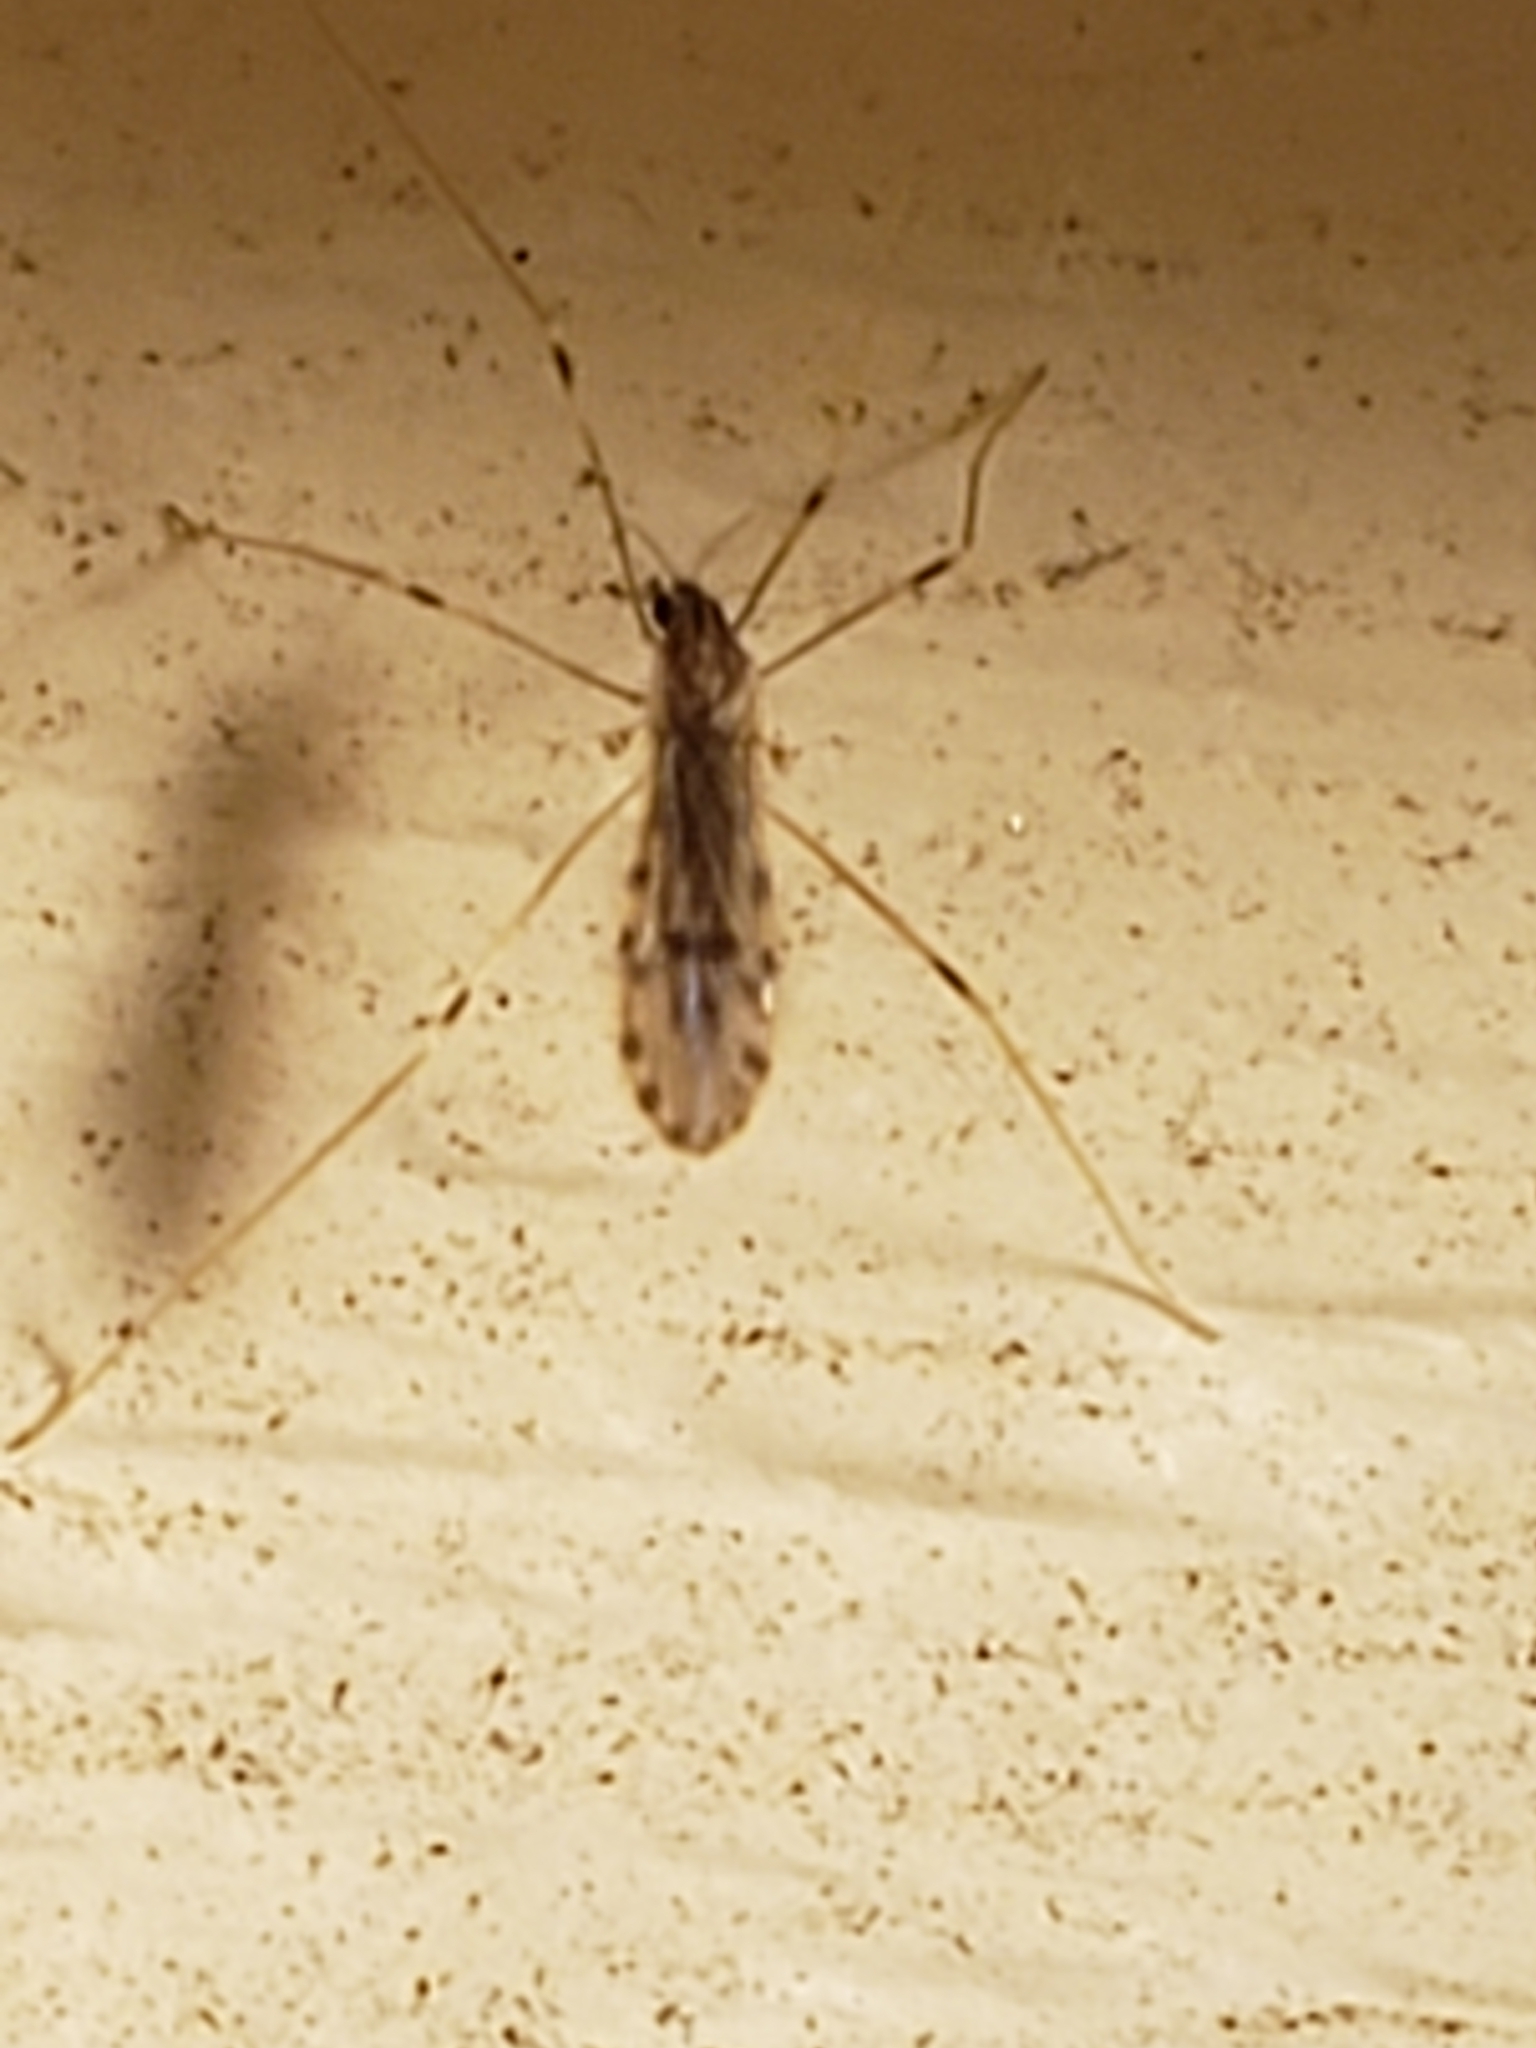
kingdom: Animalia
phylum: Arthropoda
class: Insecta
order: Diptera
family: Limoniidae
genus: Erioptera
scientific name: Erioptera parva
